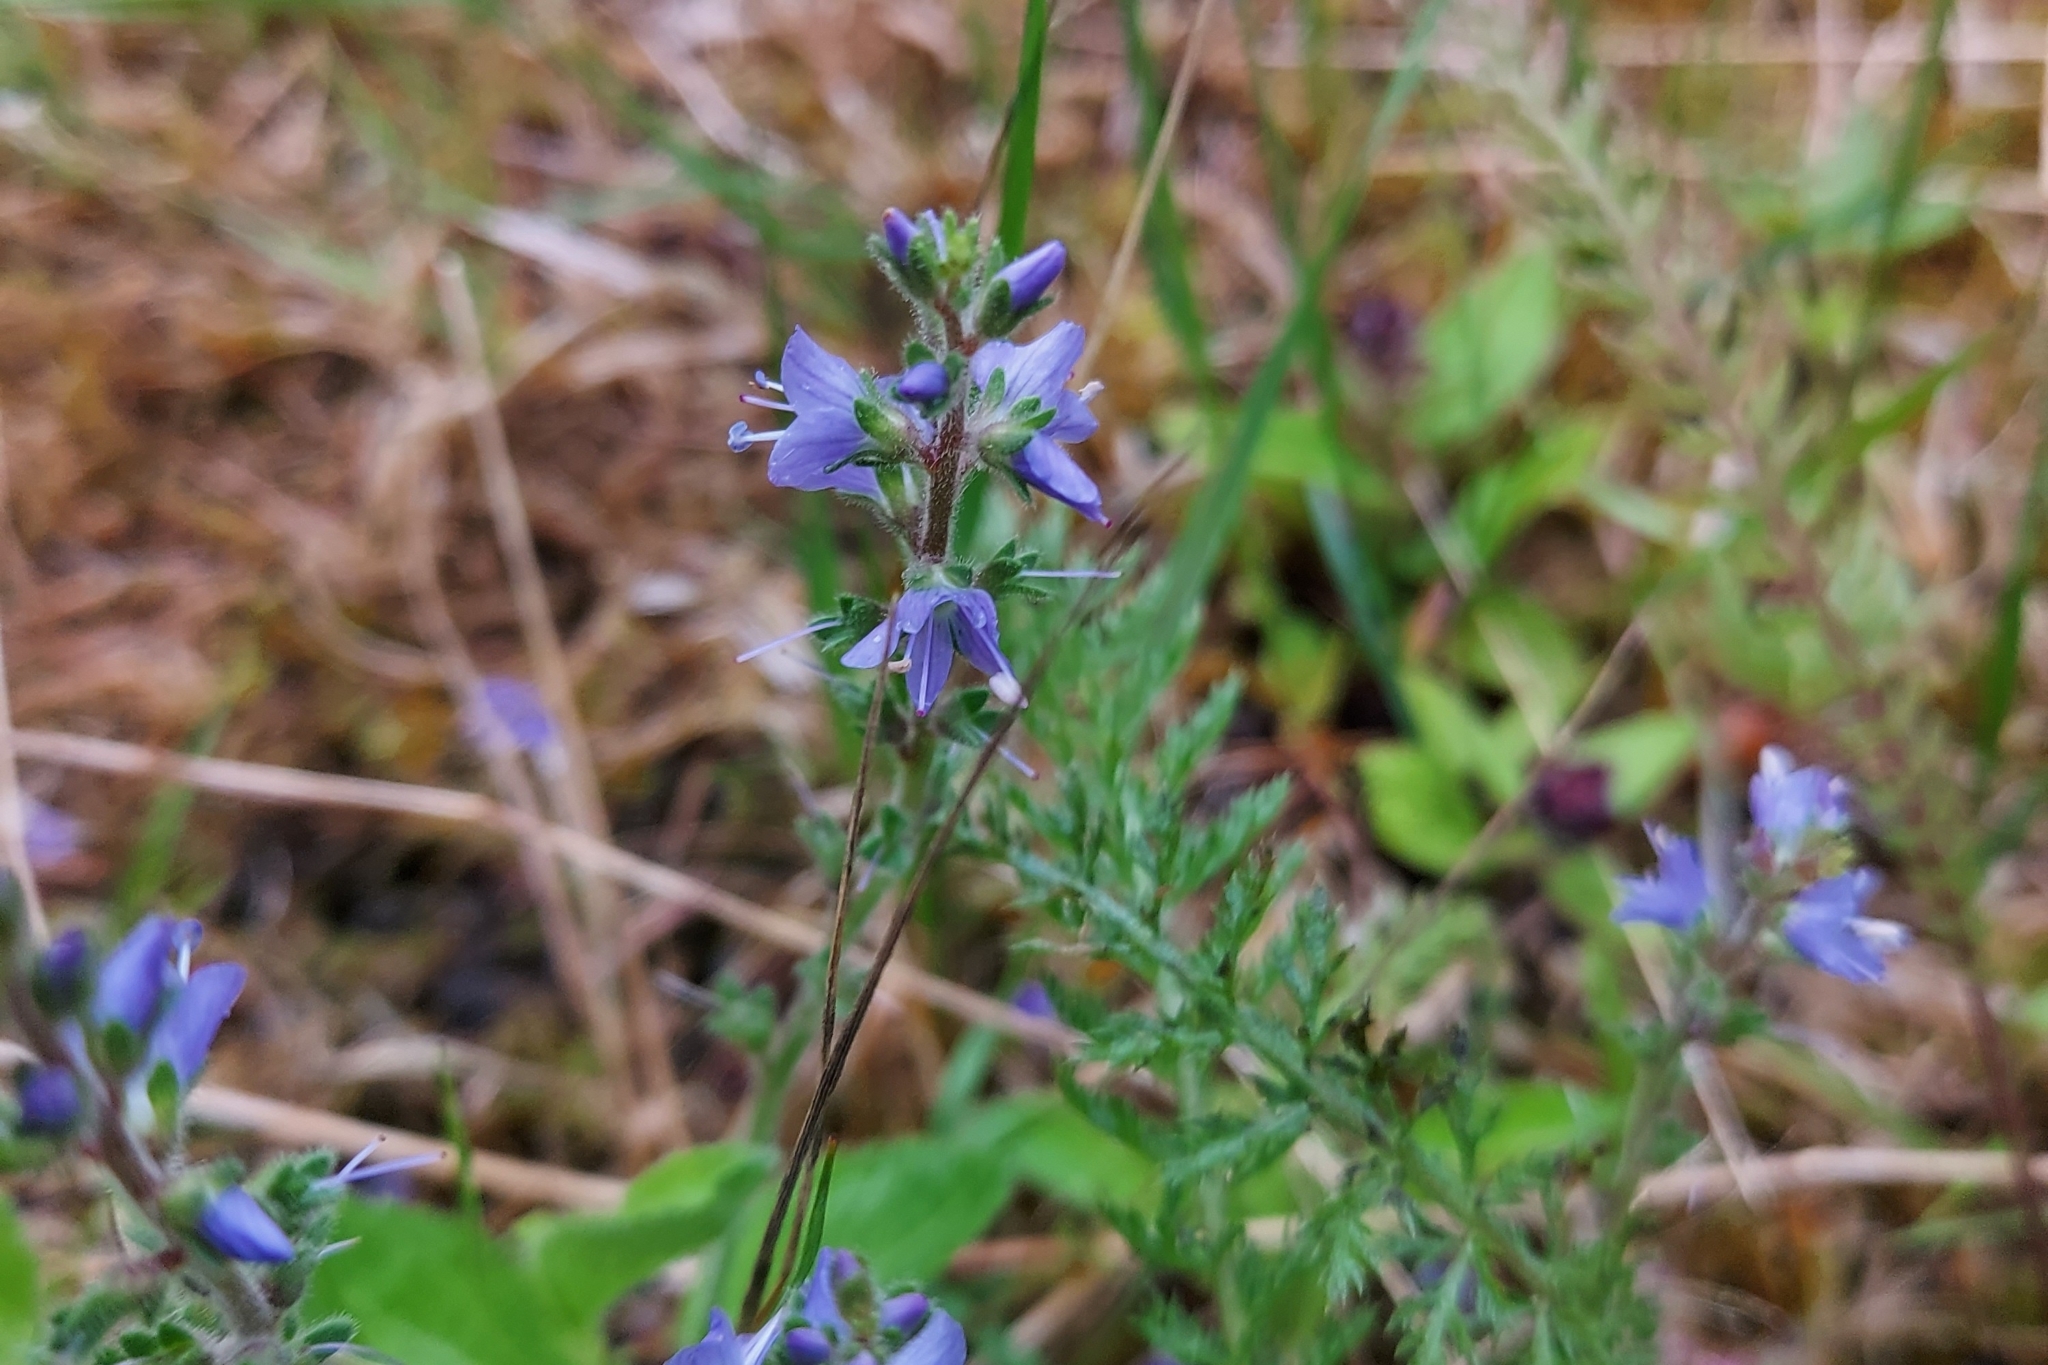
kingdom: Plantae
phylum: Tracheophyta
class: Magnoliopsida
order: Lamiales
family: Plantaginaceae
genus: Veronica
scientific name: Veronica officinalis
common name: Common speedwell
